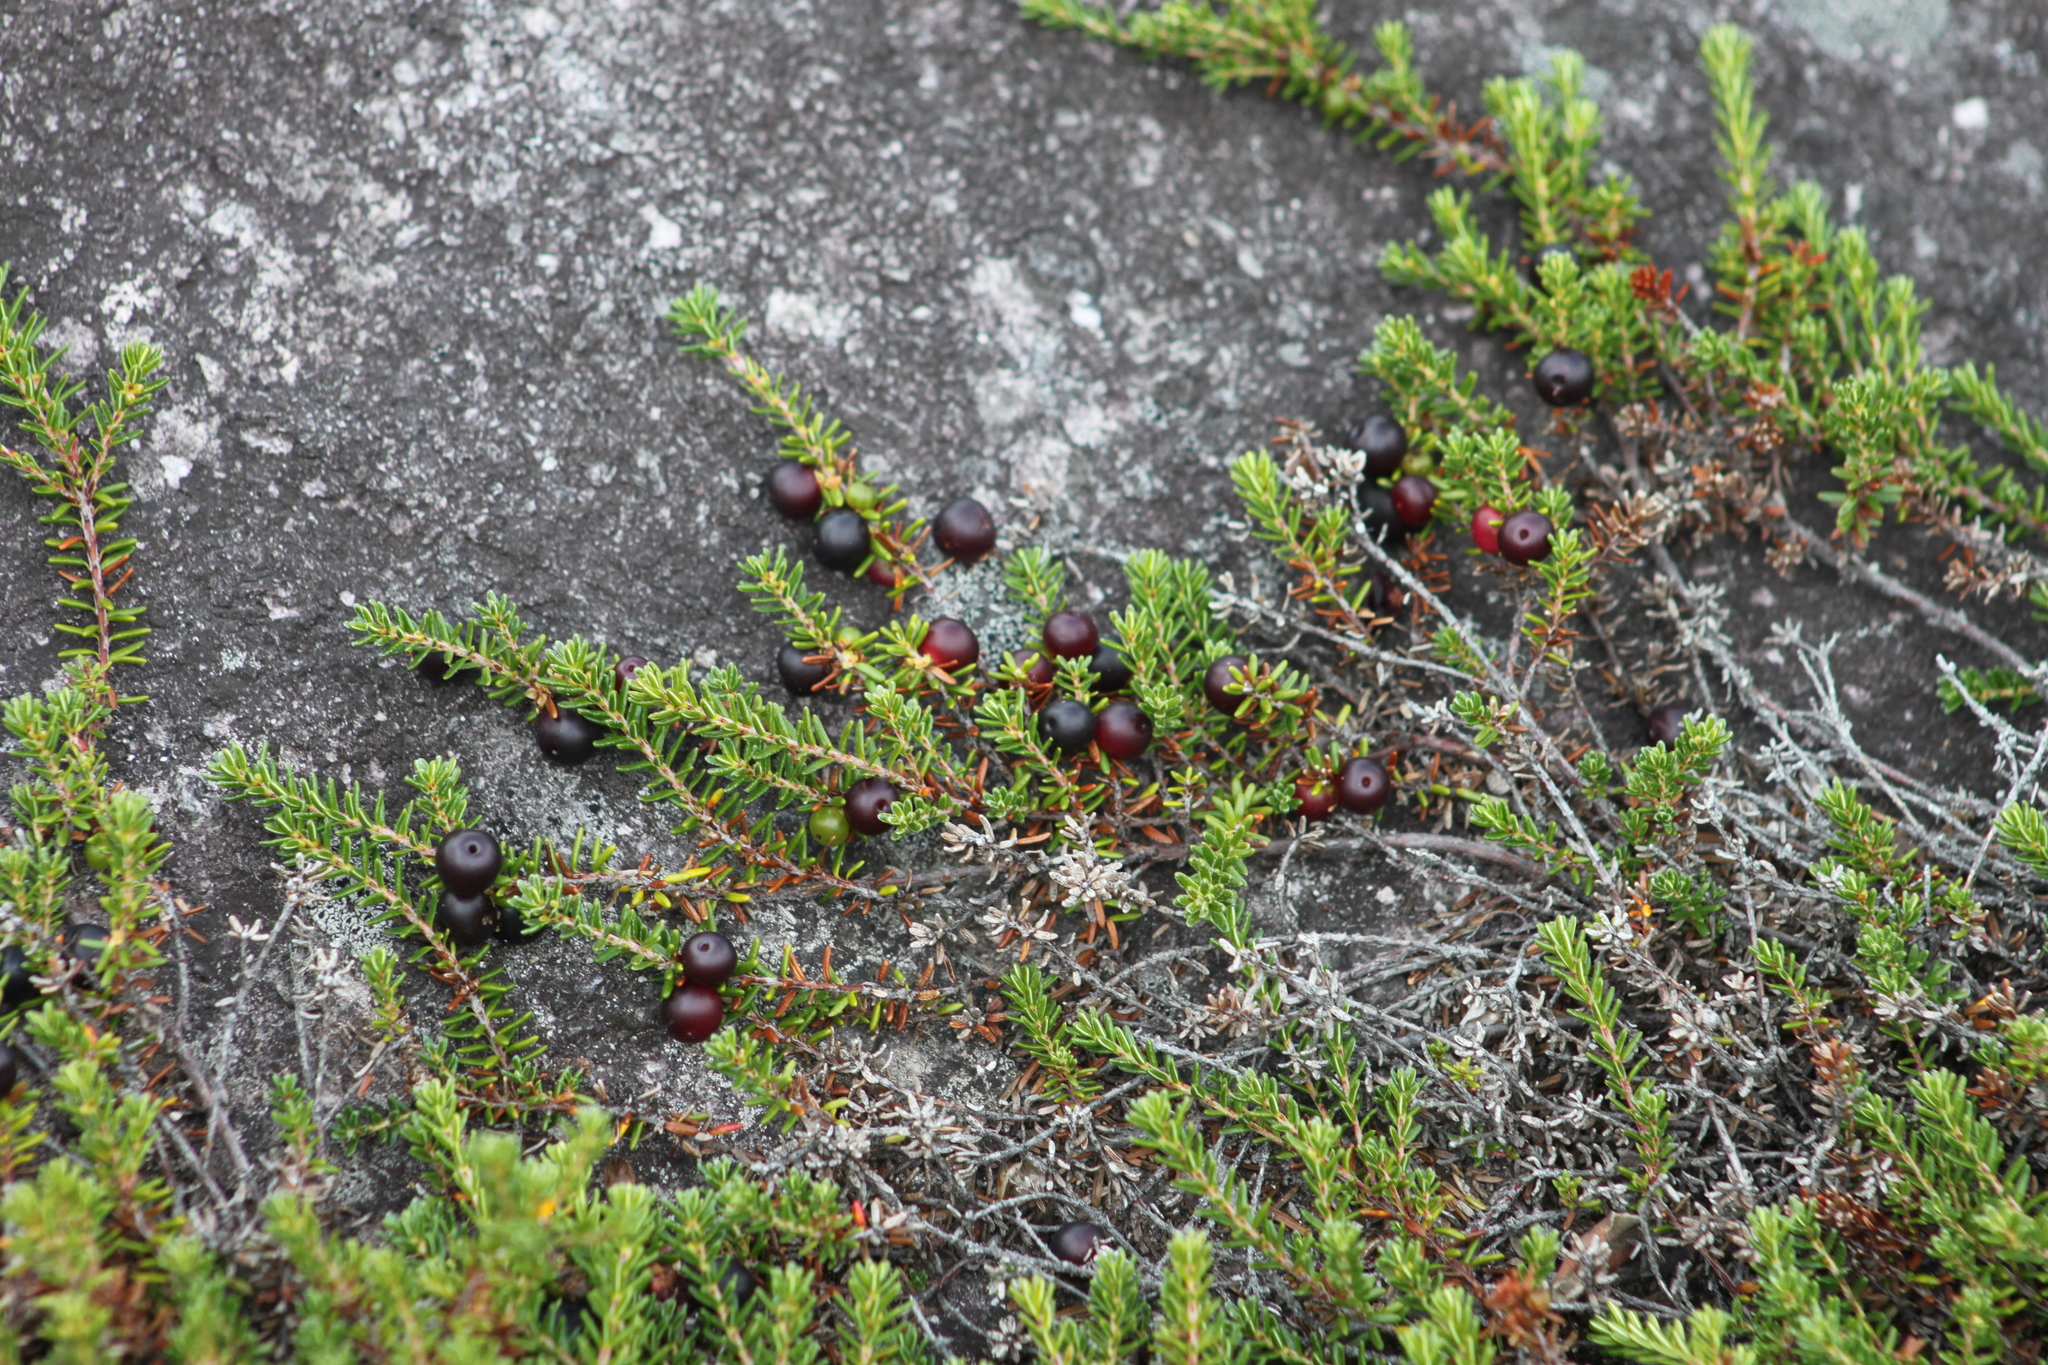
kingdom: Plantae
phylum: Tracheophyta
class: Magnoliopsida
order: Ericales
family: Ericaceae
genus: Empetrum
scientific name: Empetrum atropurpureum
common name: Purple crowberry
